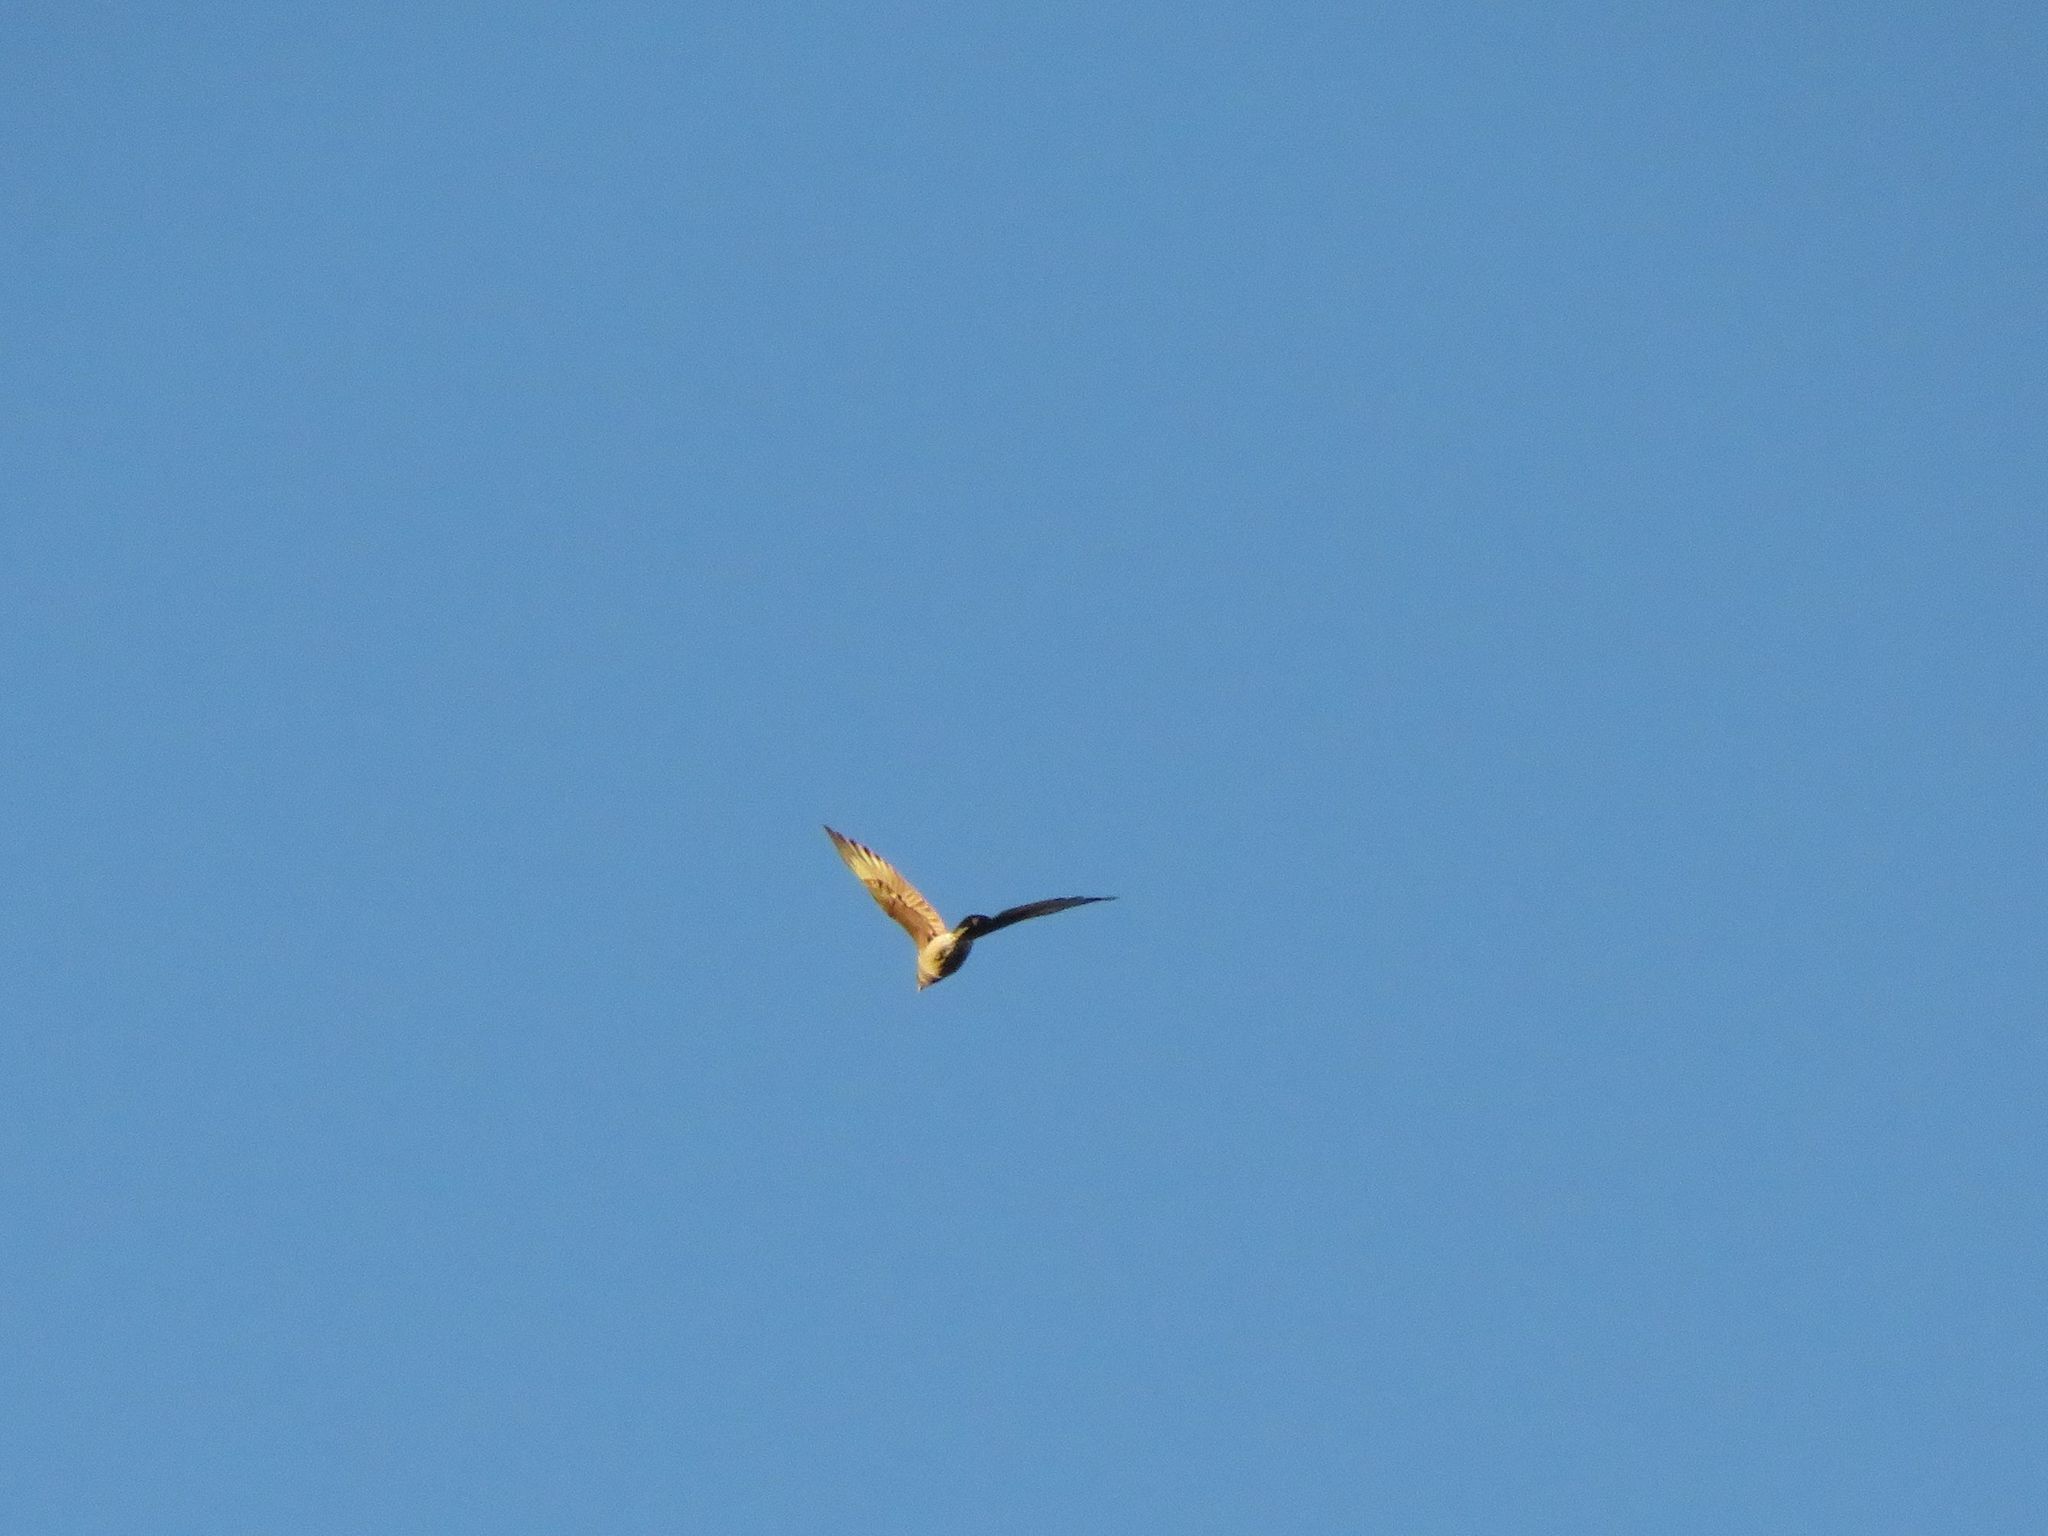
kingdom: Animalia
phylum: Chordata
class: Aves
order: Falconiformes
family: Falconidae
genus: Daptrius
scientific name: Daptrius
